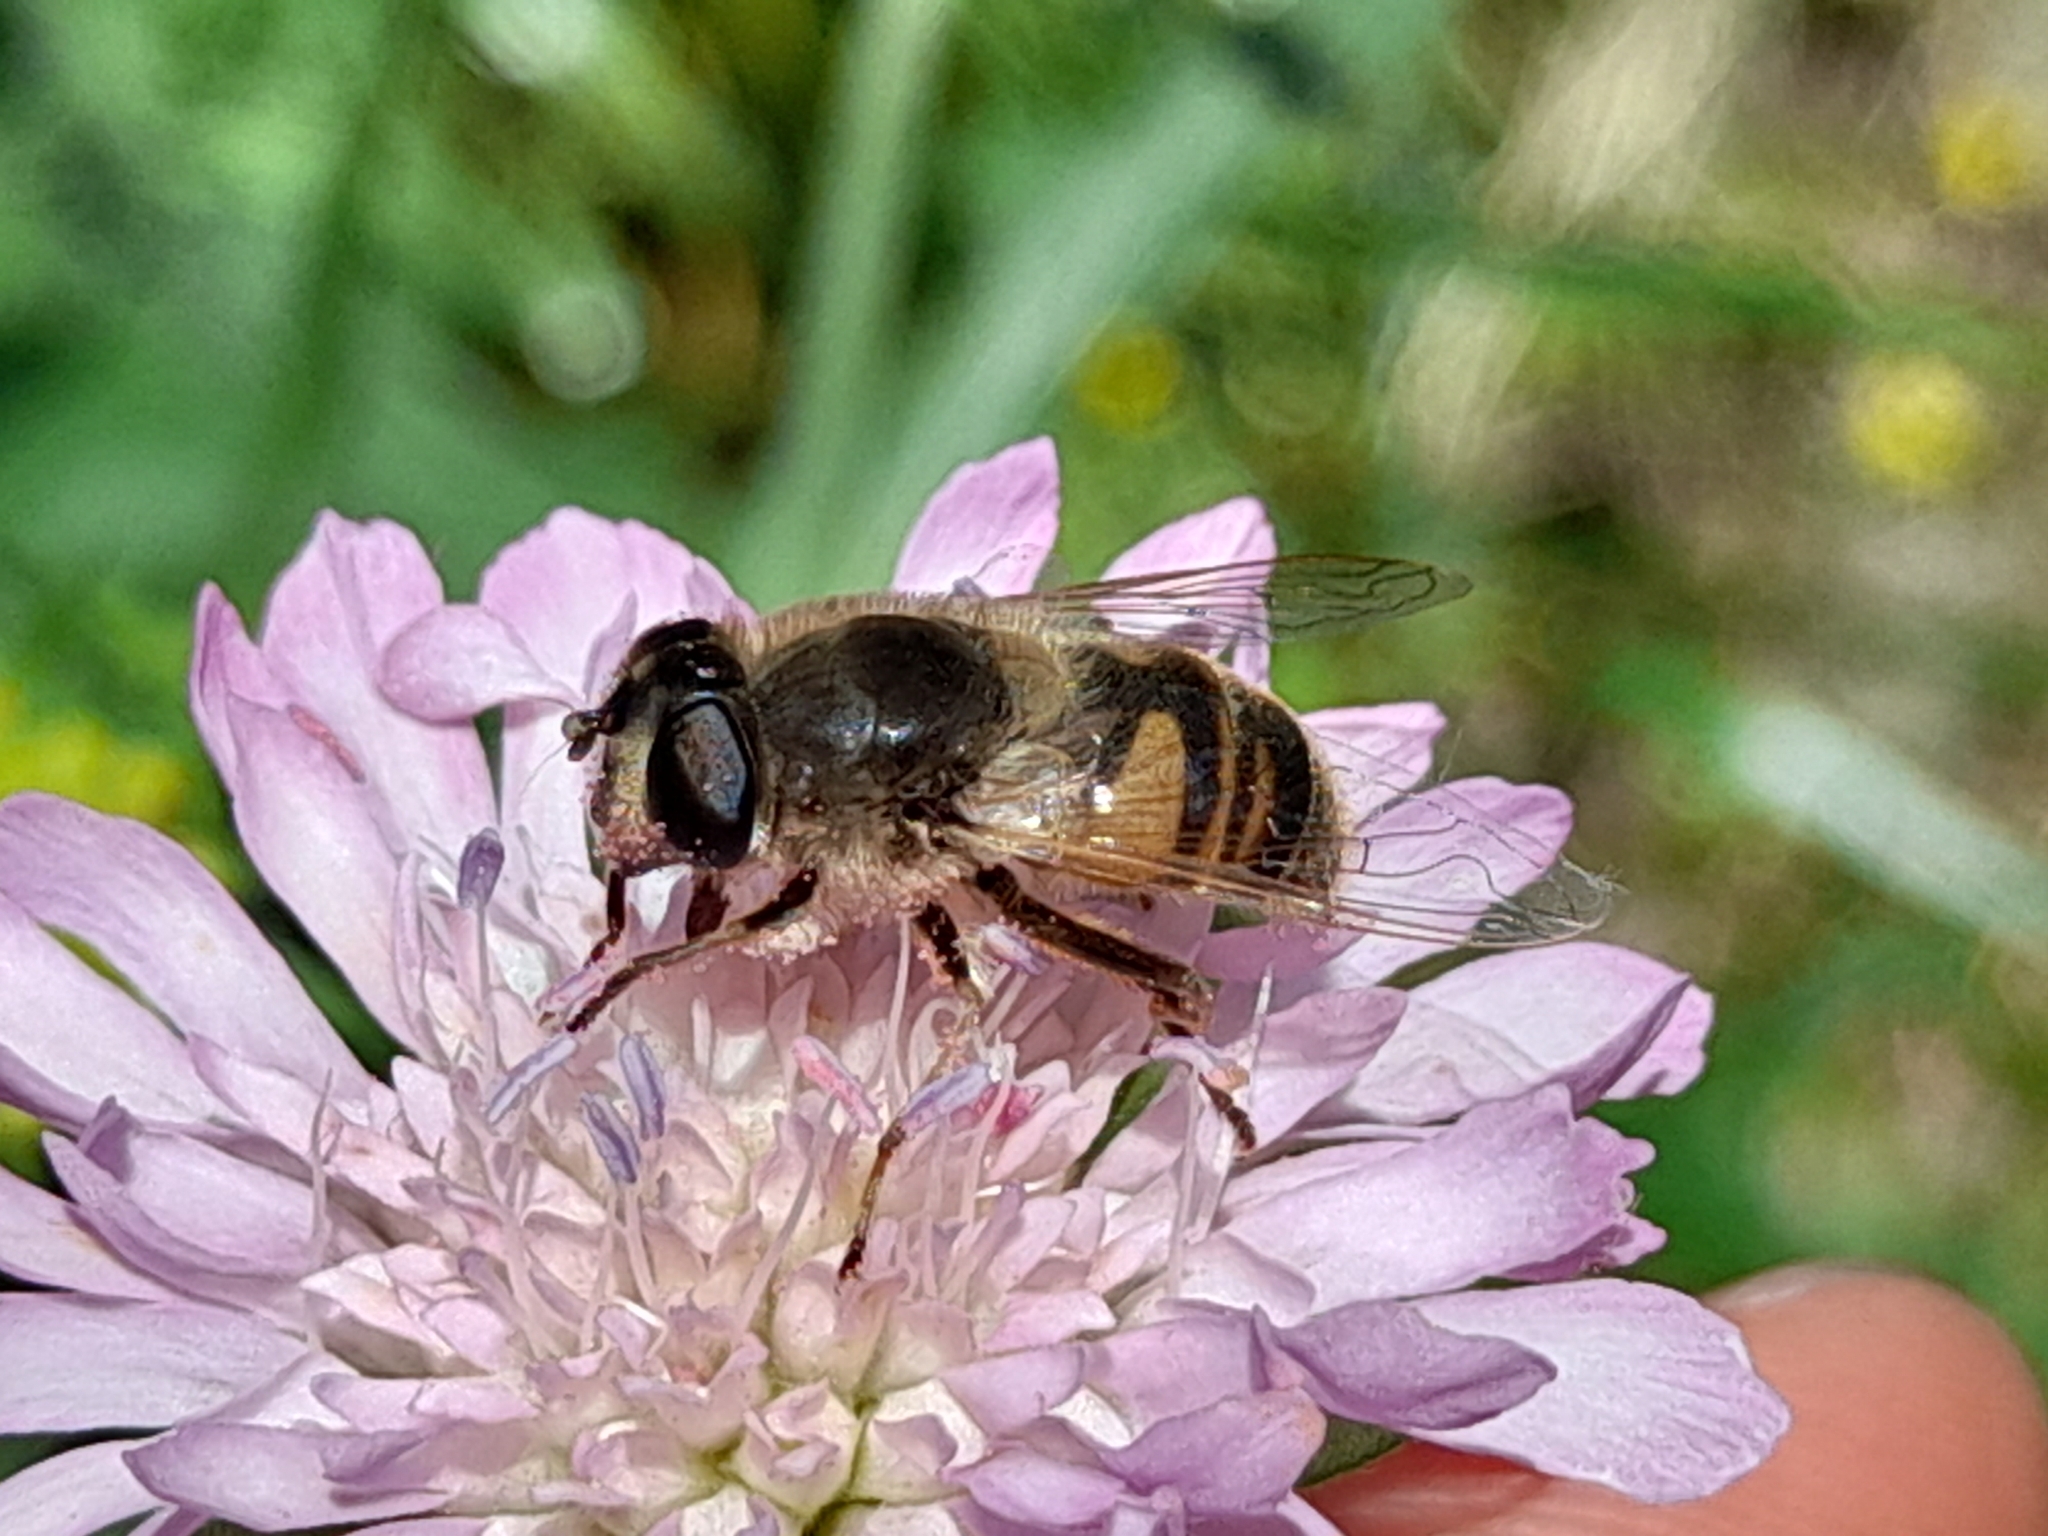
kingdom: Animalia
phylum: Arthropoda
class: Insecta
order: Diptera
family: Syrphidae
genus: Eristalis
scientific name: Eristalis tenax
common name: Drone fly
